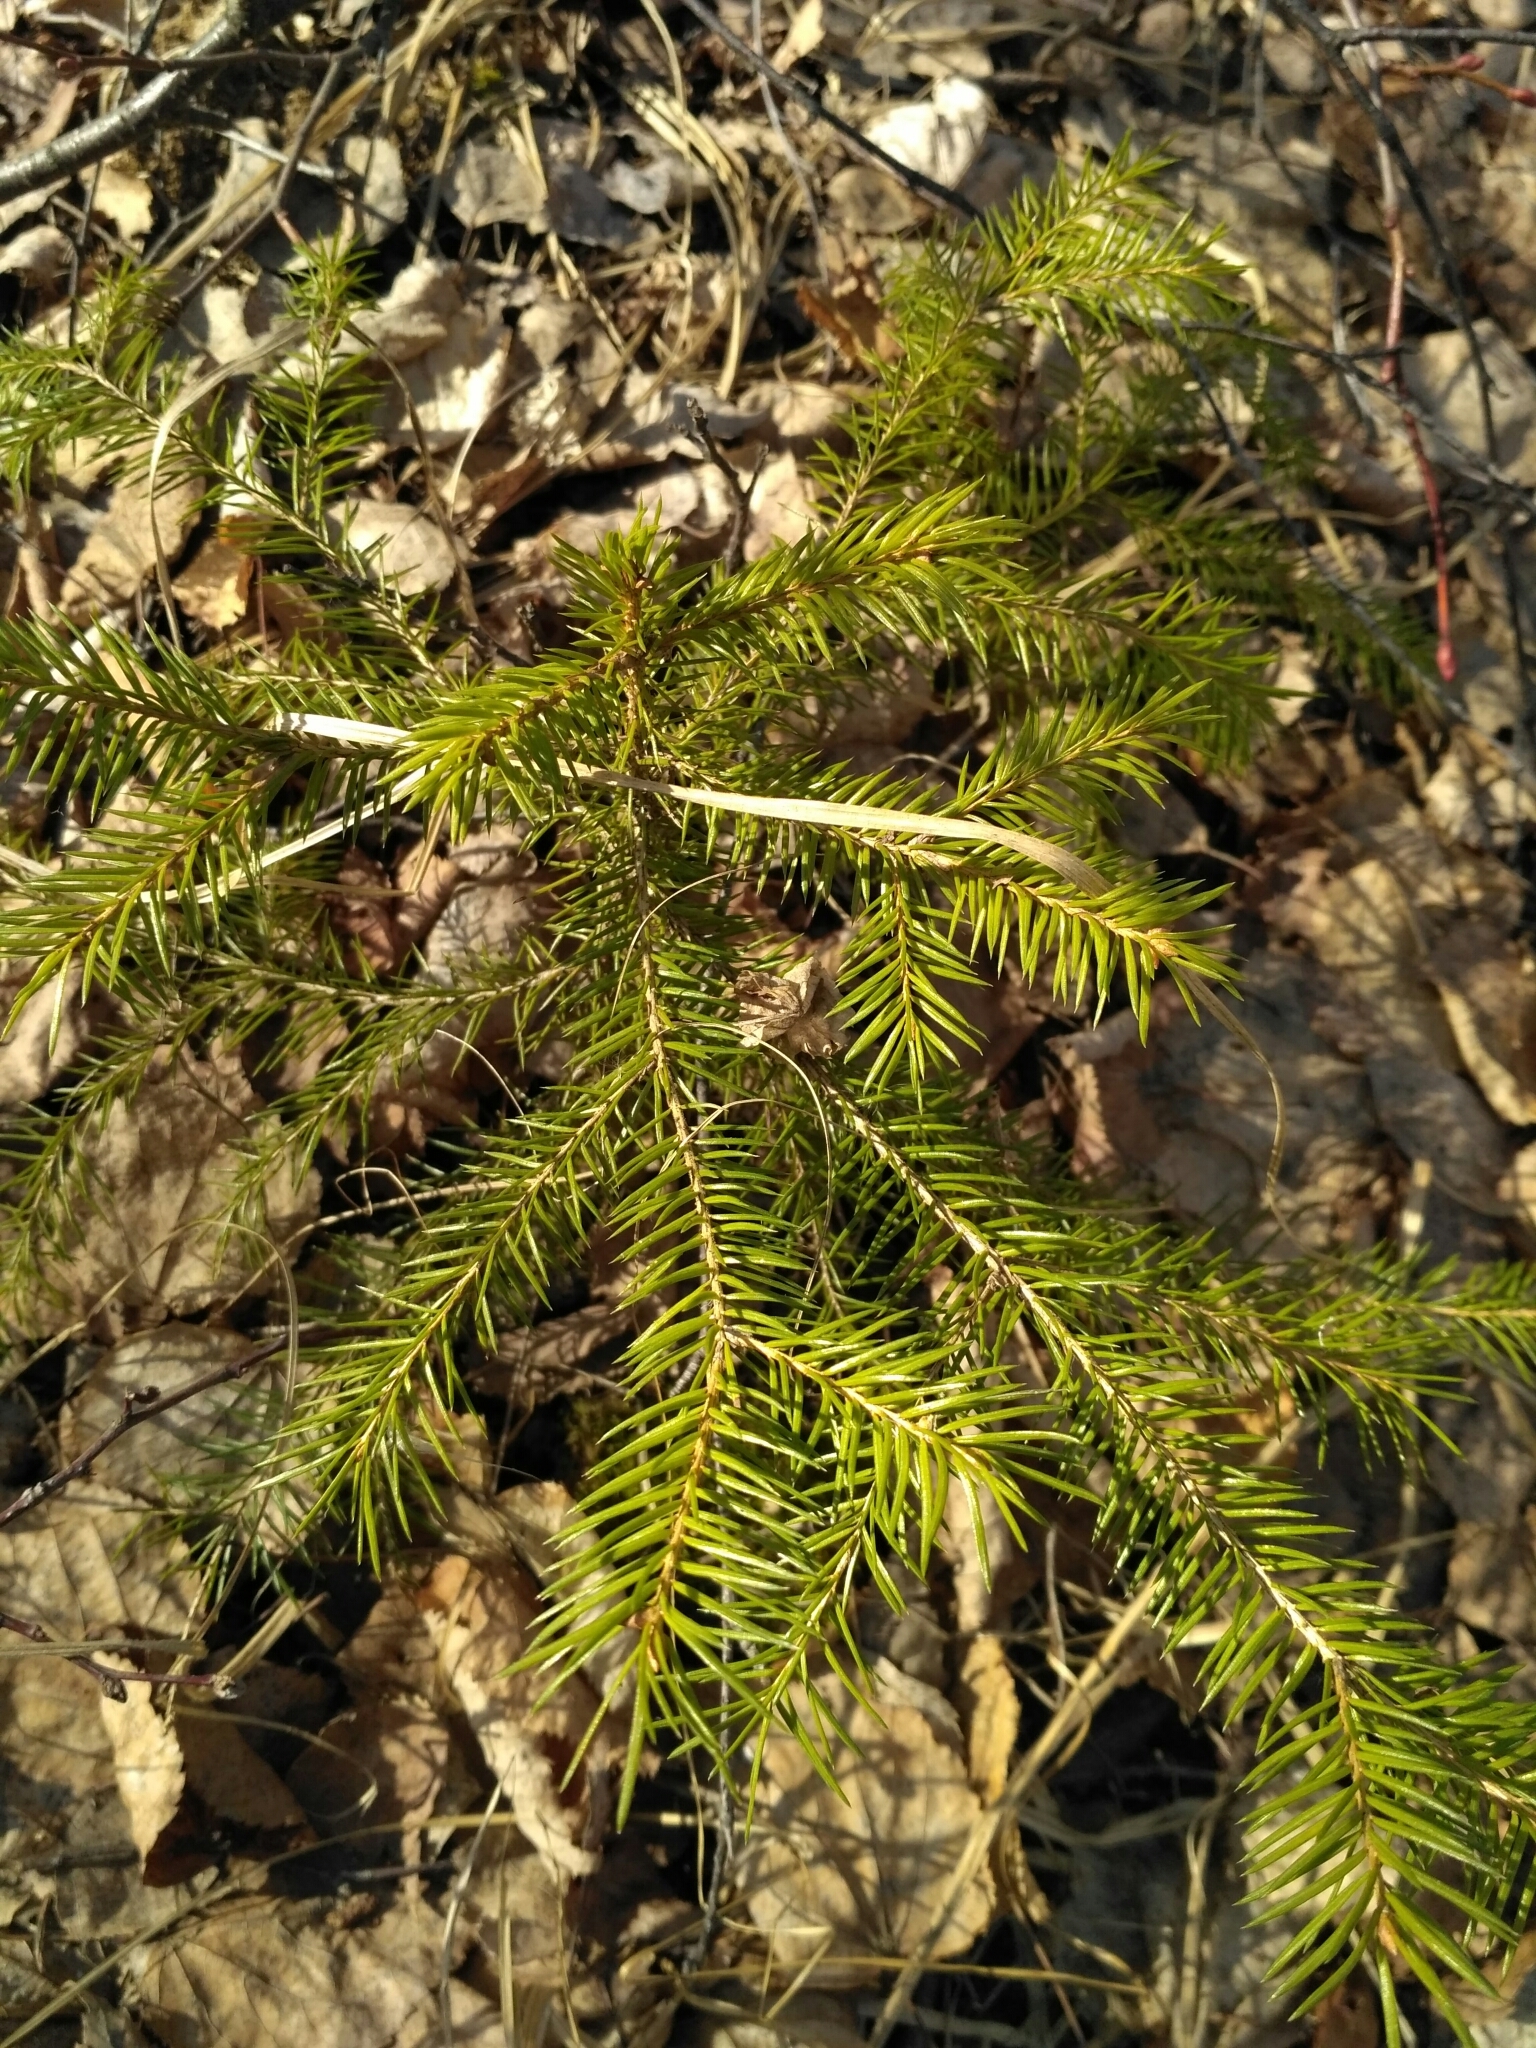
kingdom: Plantae
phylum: Tracheophyta
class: Pinopsida
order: Pinales
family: Pinaceae
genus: Picea
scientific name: Picea abies
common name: Norway spruce
